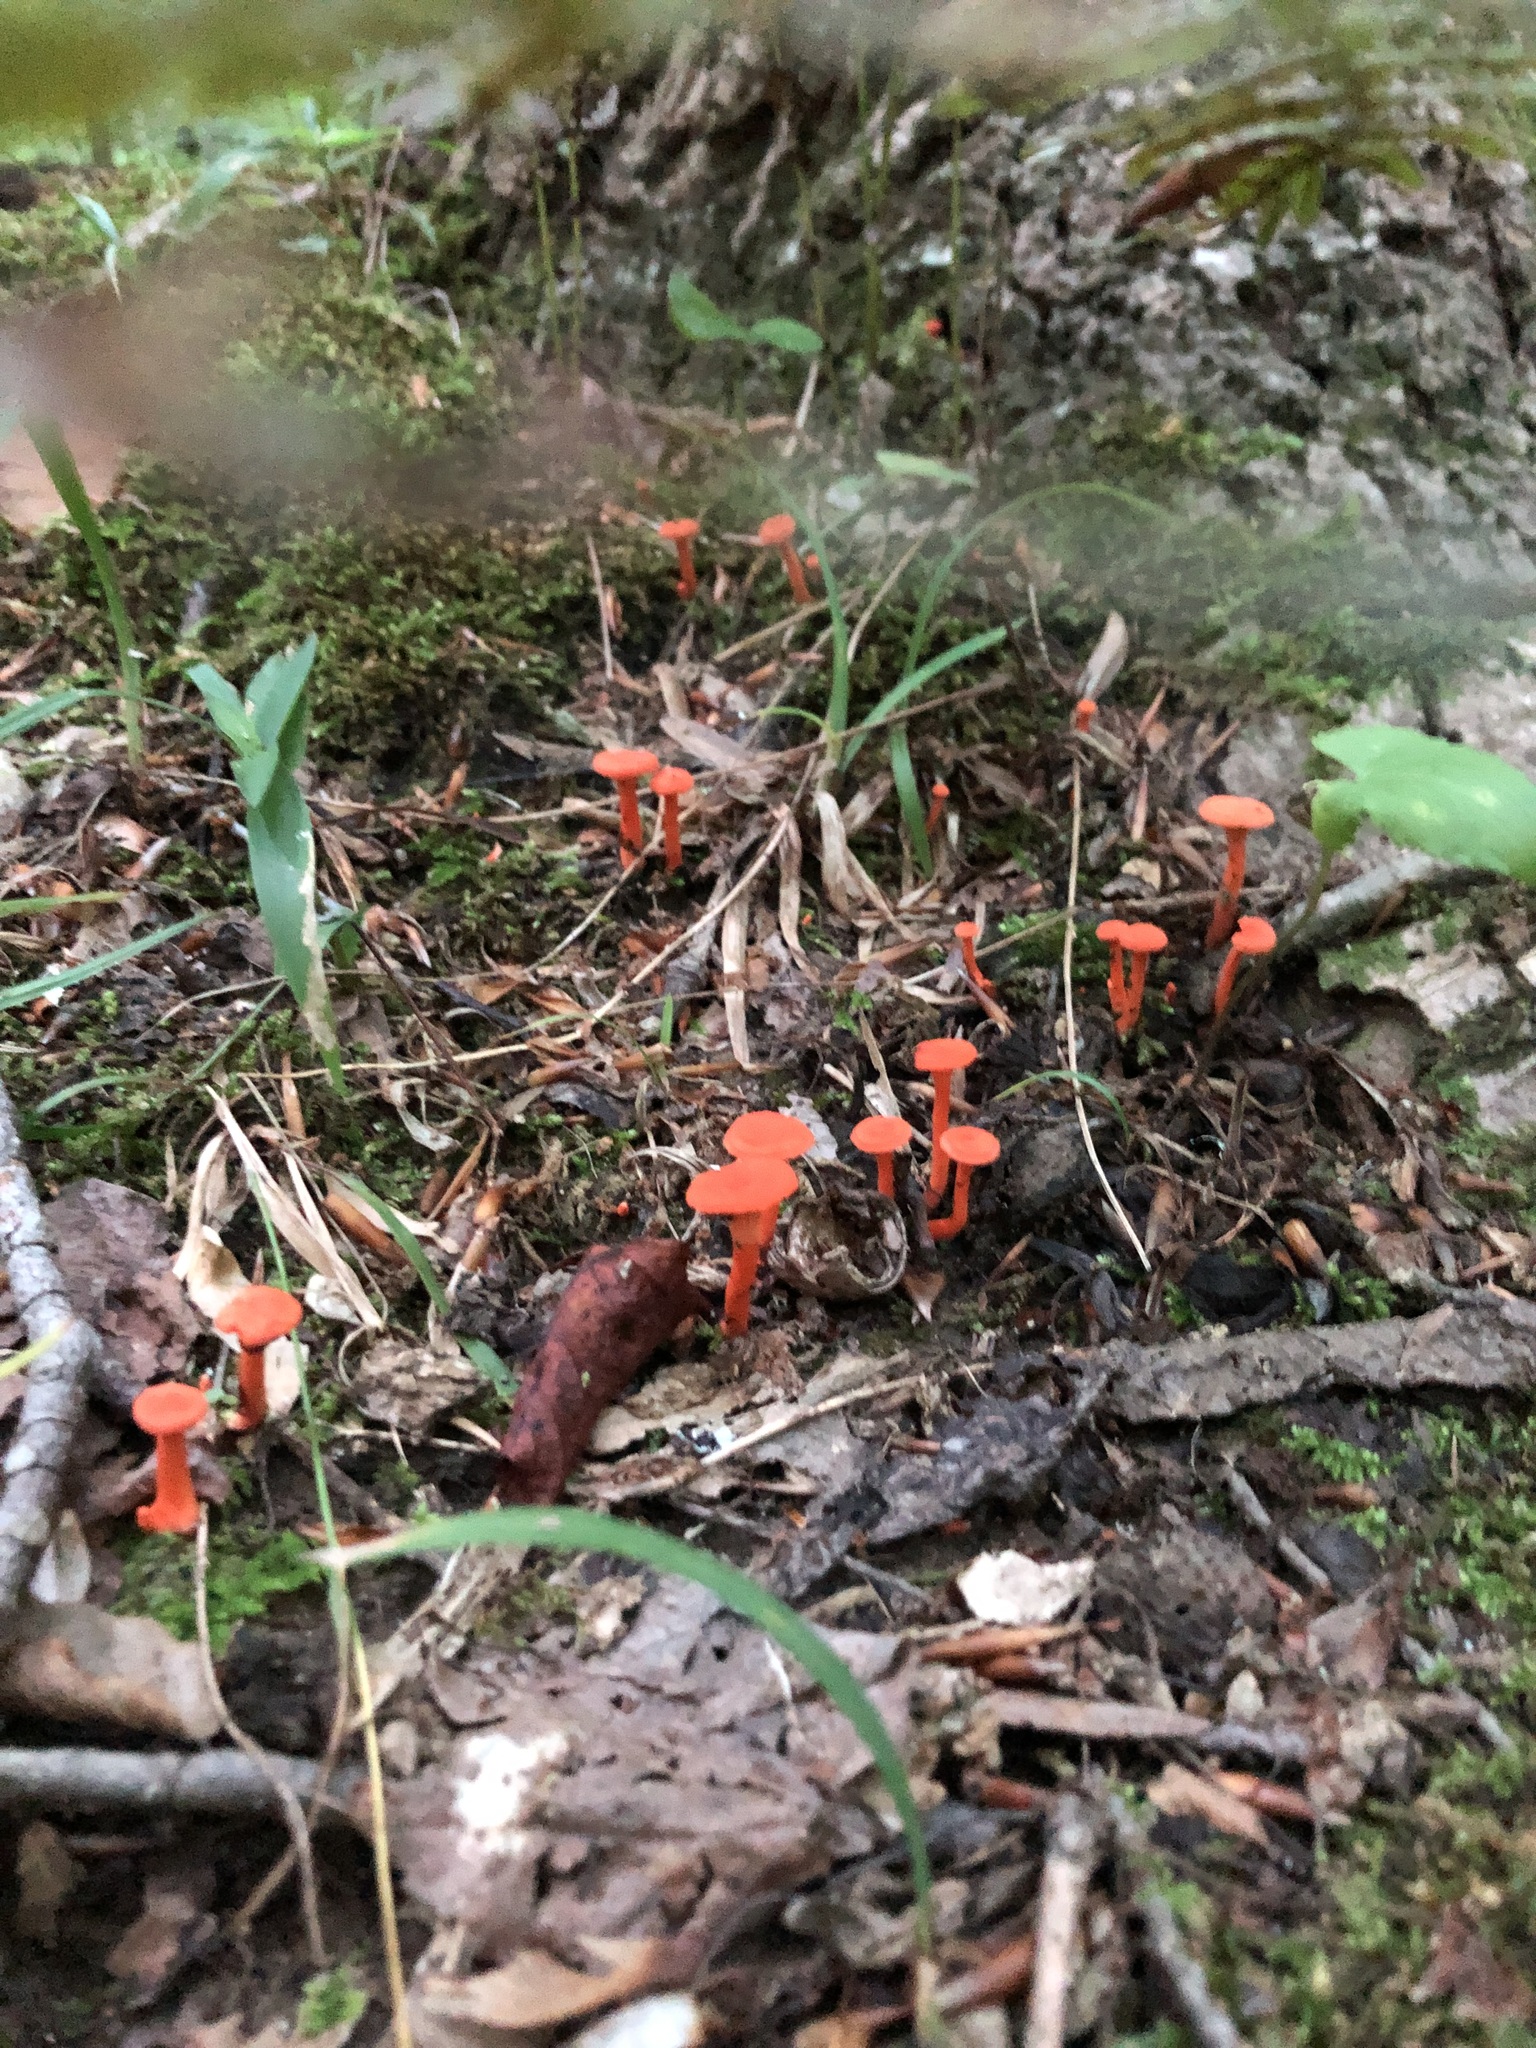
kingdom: Fungi
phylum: Basidiomycota
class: Agaricomycetes
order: Cantharellales
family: Hydnaceae
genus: Cantharellus
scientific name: Cantharellus cinnabarinus
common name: Cinnabar chanterelle
